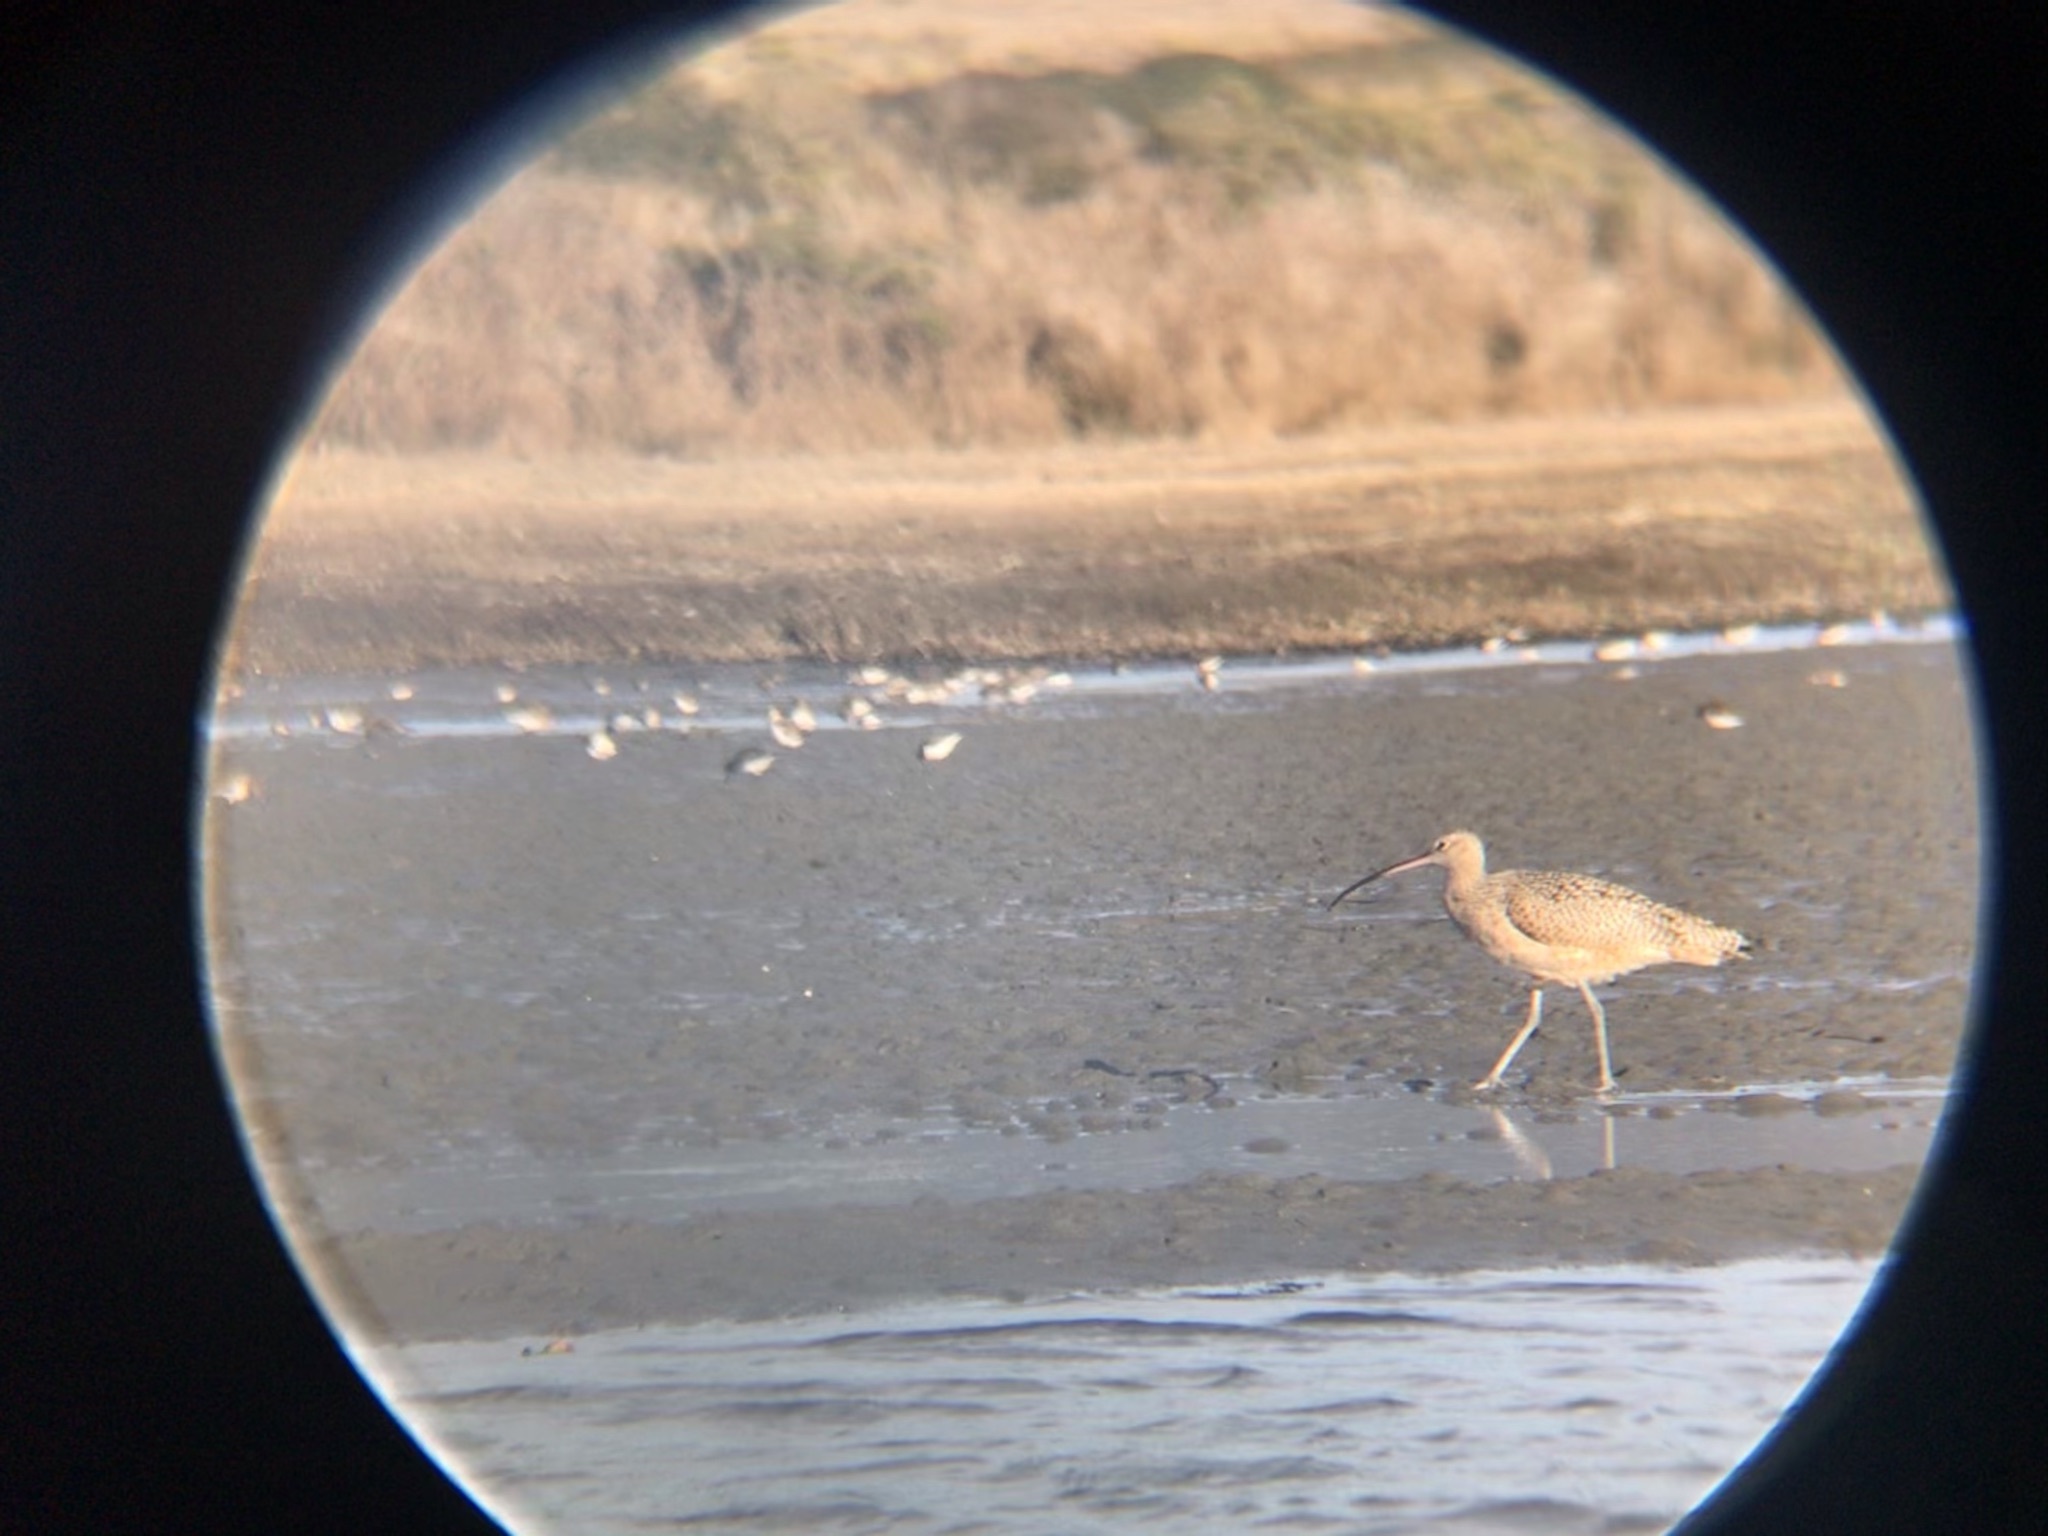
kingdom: Animalia
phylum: Chordata
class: Aves
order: Charadriiformes
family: Scolopacidae
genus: Numenius
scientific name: Numenius americanus
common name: Long-billed curlew
